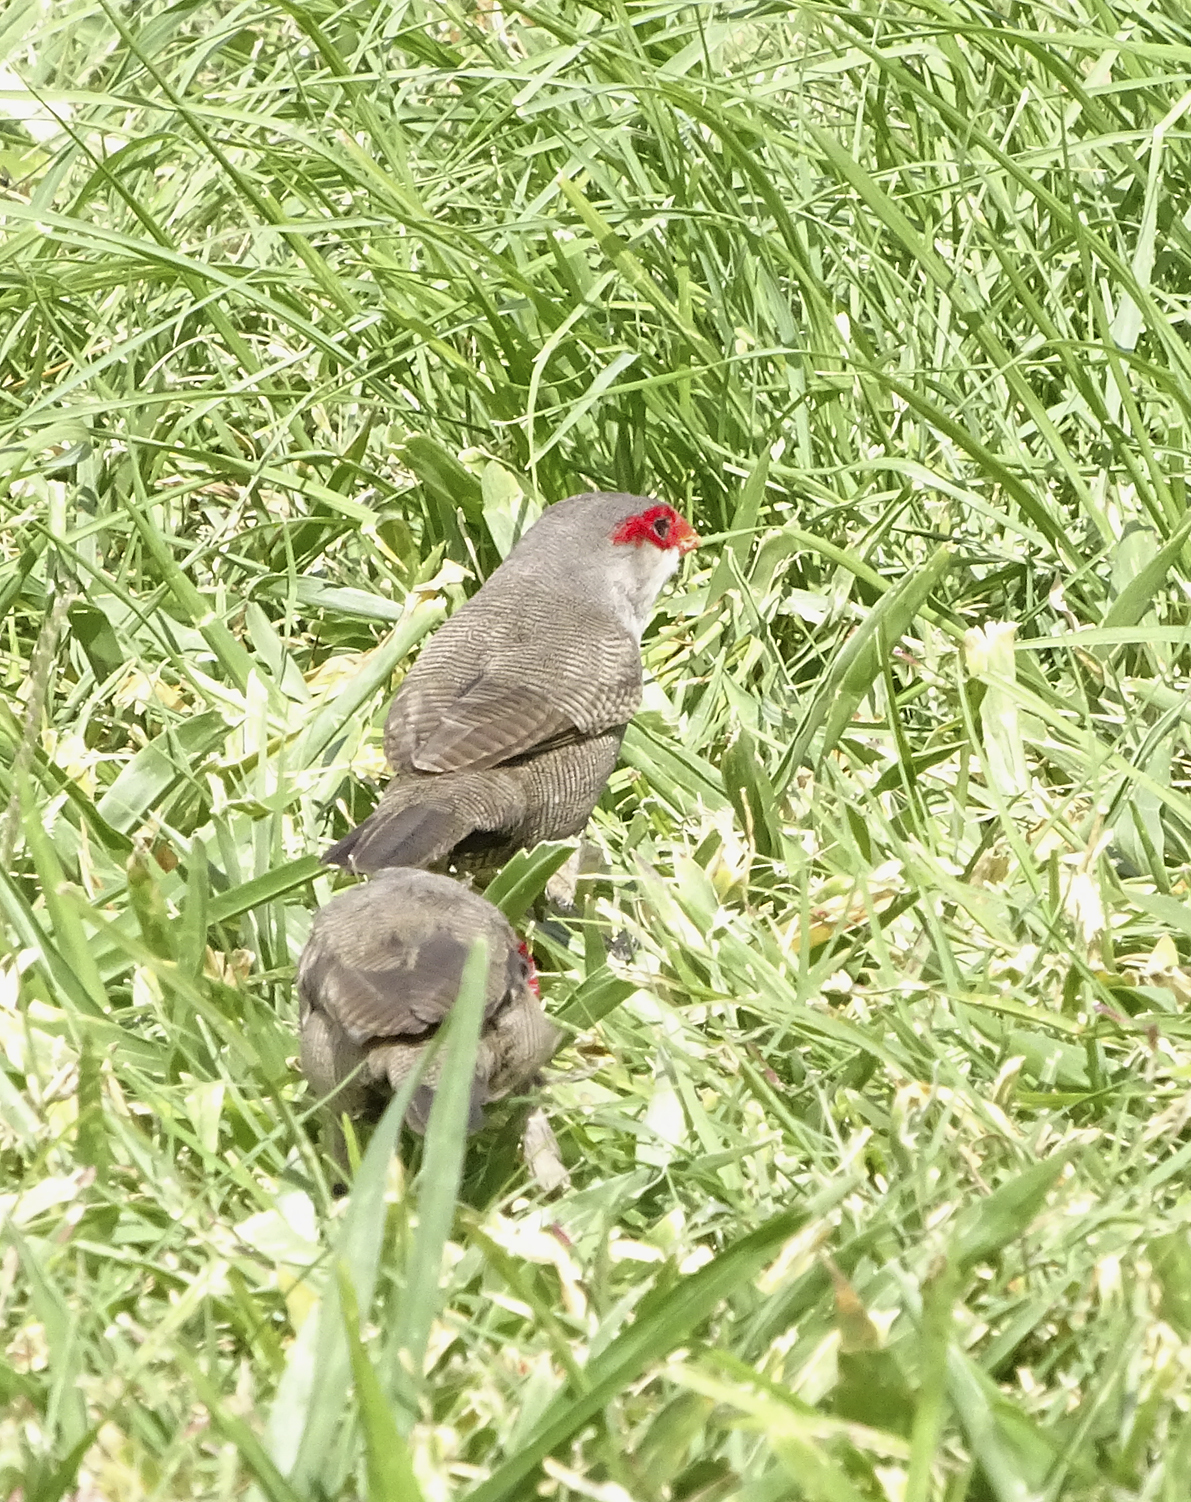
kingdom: Animalia
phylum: Chordata
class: Aves
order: Passeriformes
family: Estrildidae
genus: Estrilda
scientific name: Estrilda astrild
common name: Common waxbill
